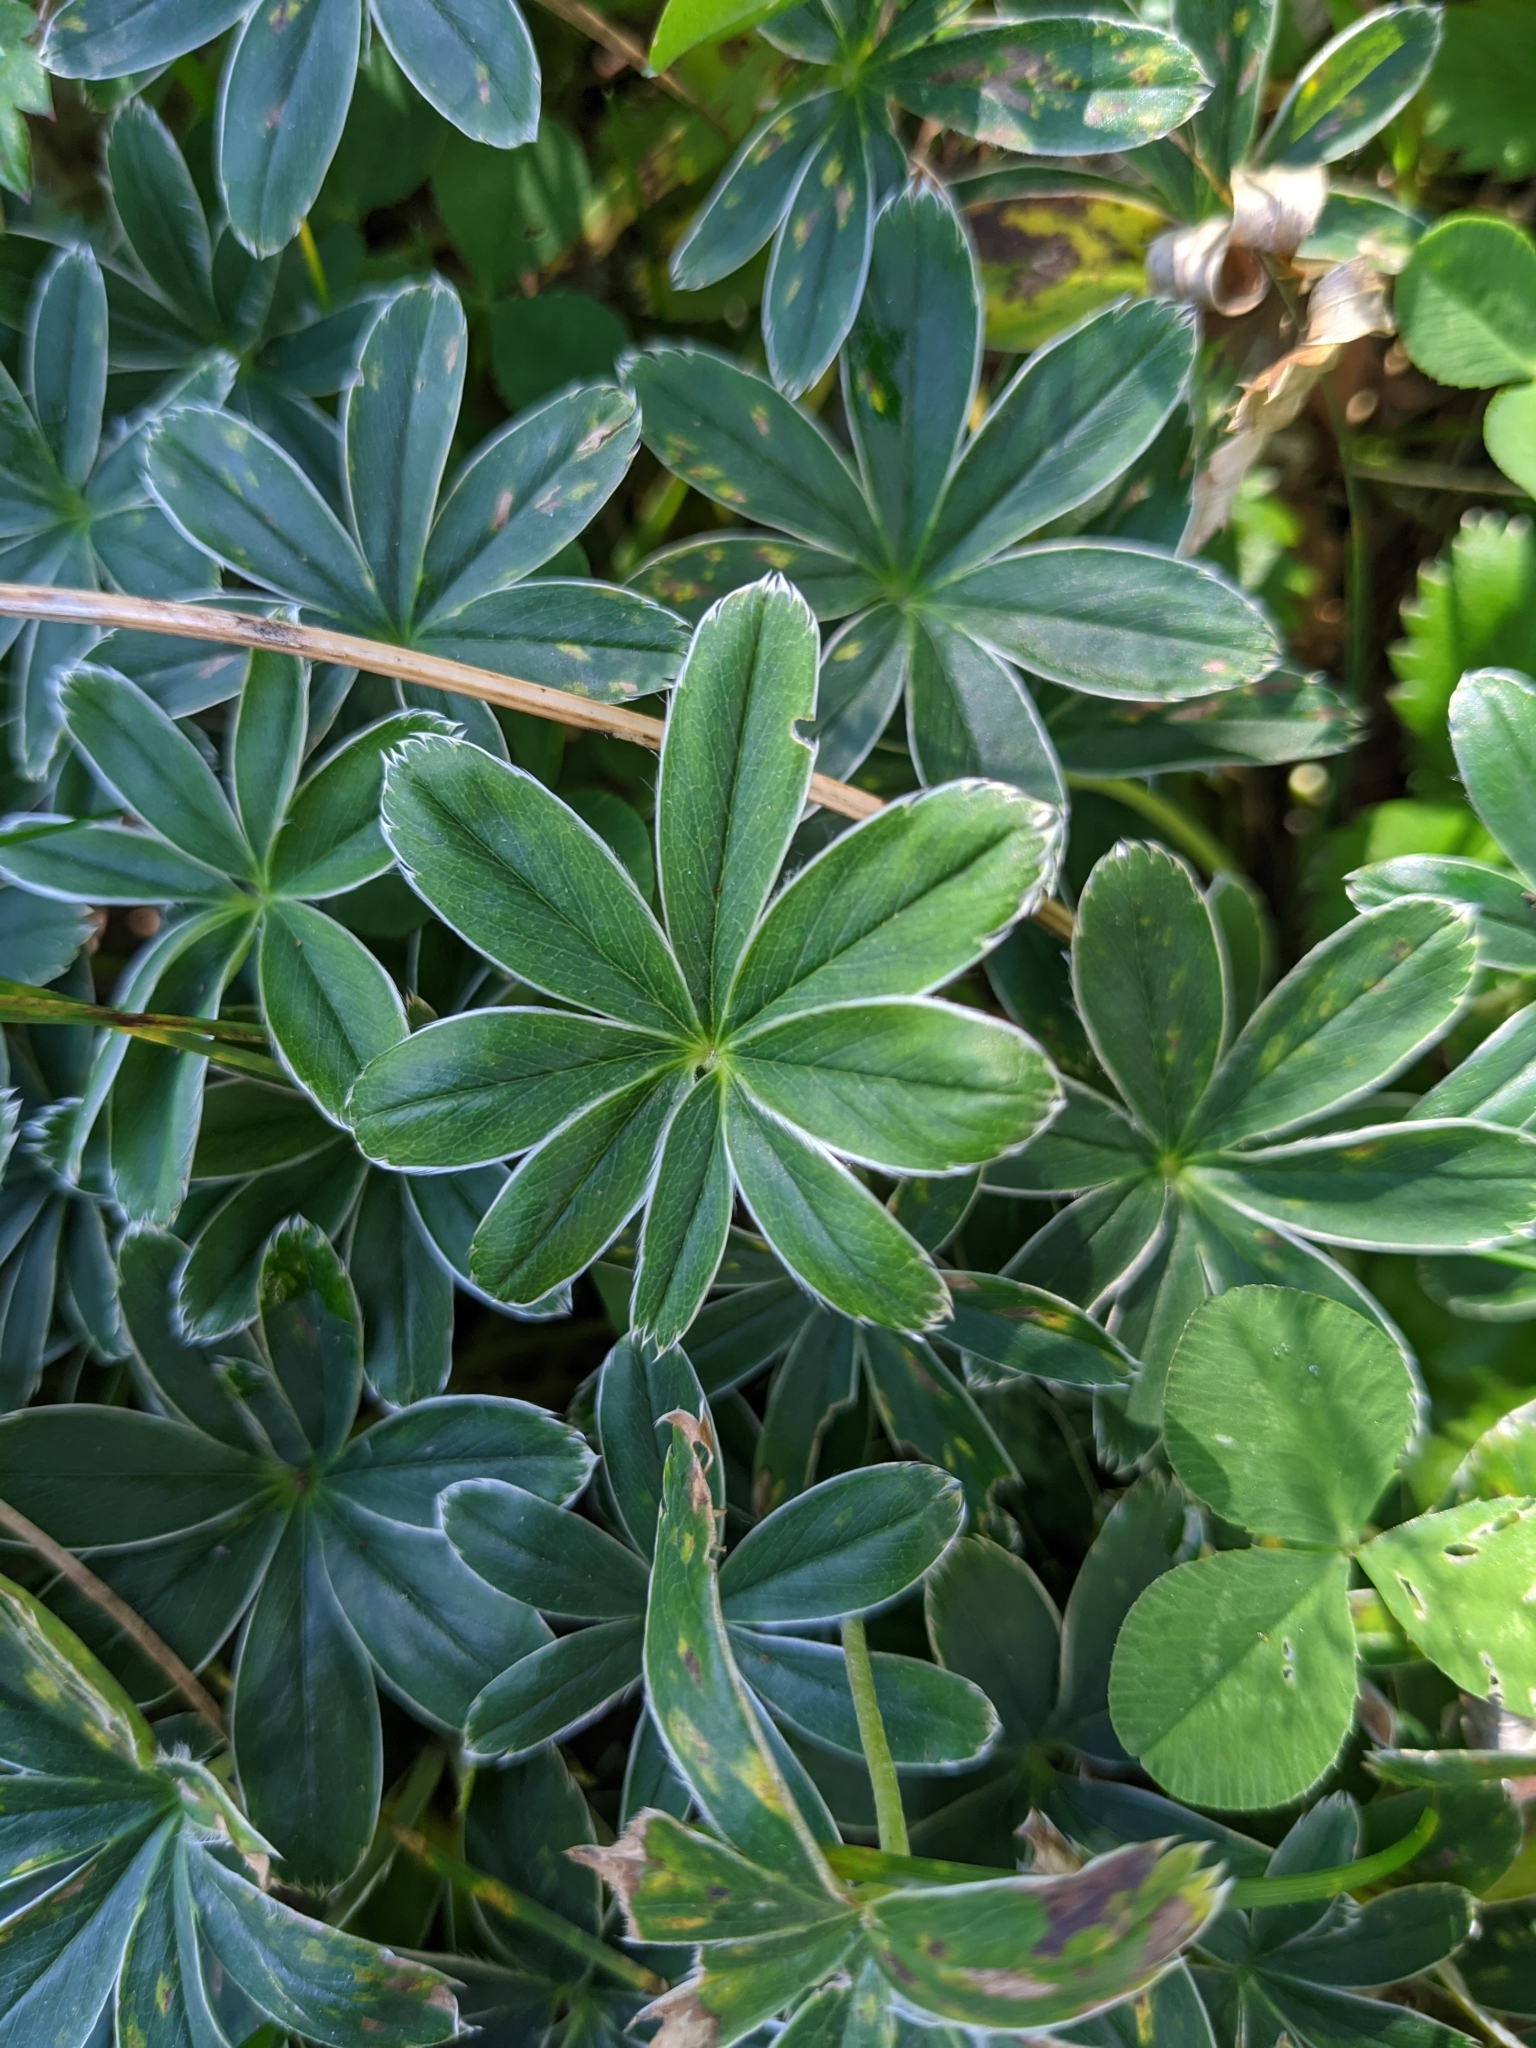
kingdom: Plantae
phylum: Tracheophyta
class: Magnoliopsida
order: Rosales
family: Rosaceae
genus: Alchemilla
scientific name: Alchemilla alpina
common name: Alpine lady's-mantle
